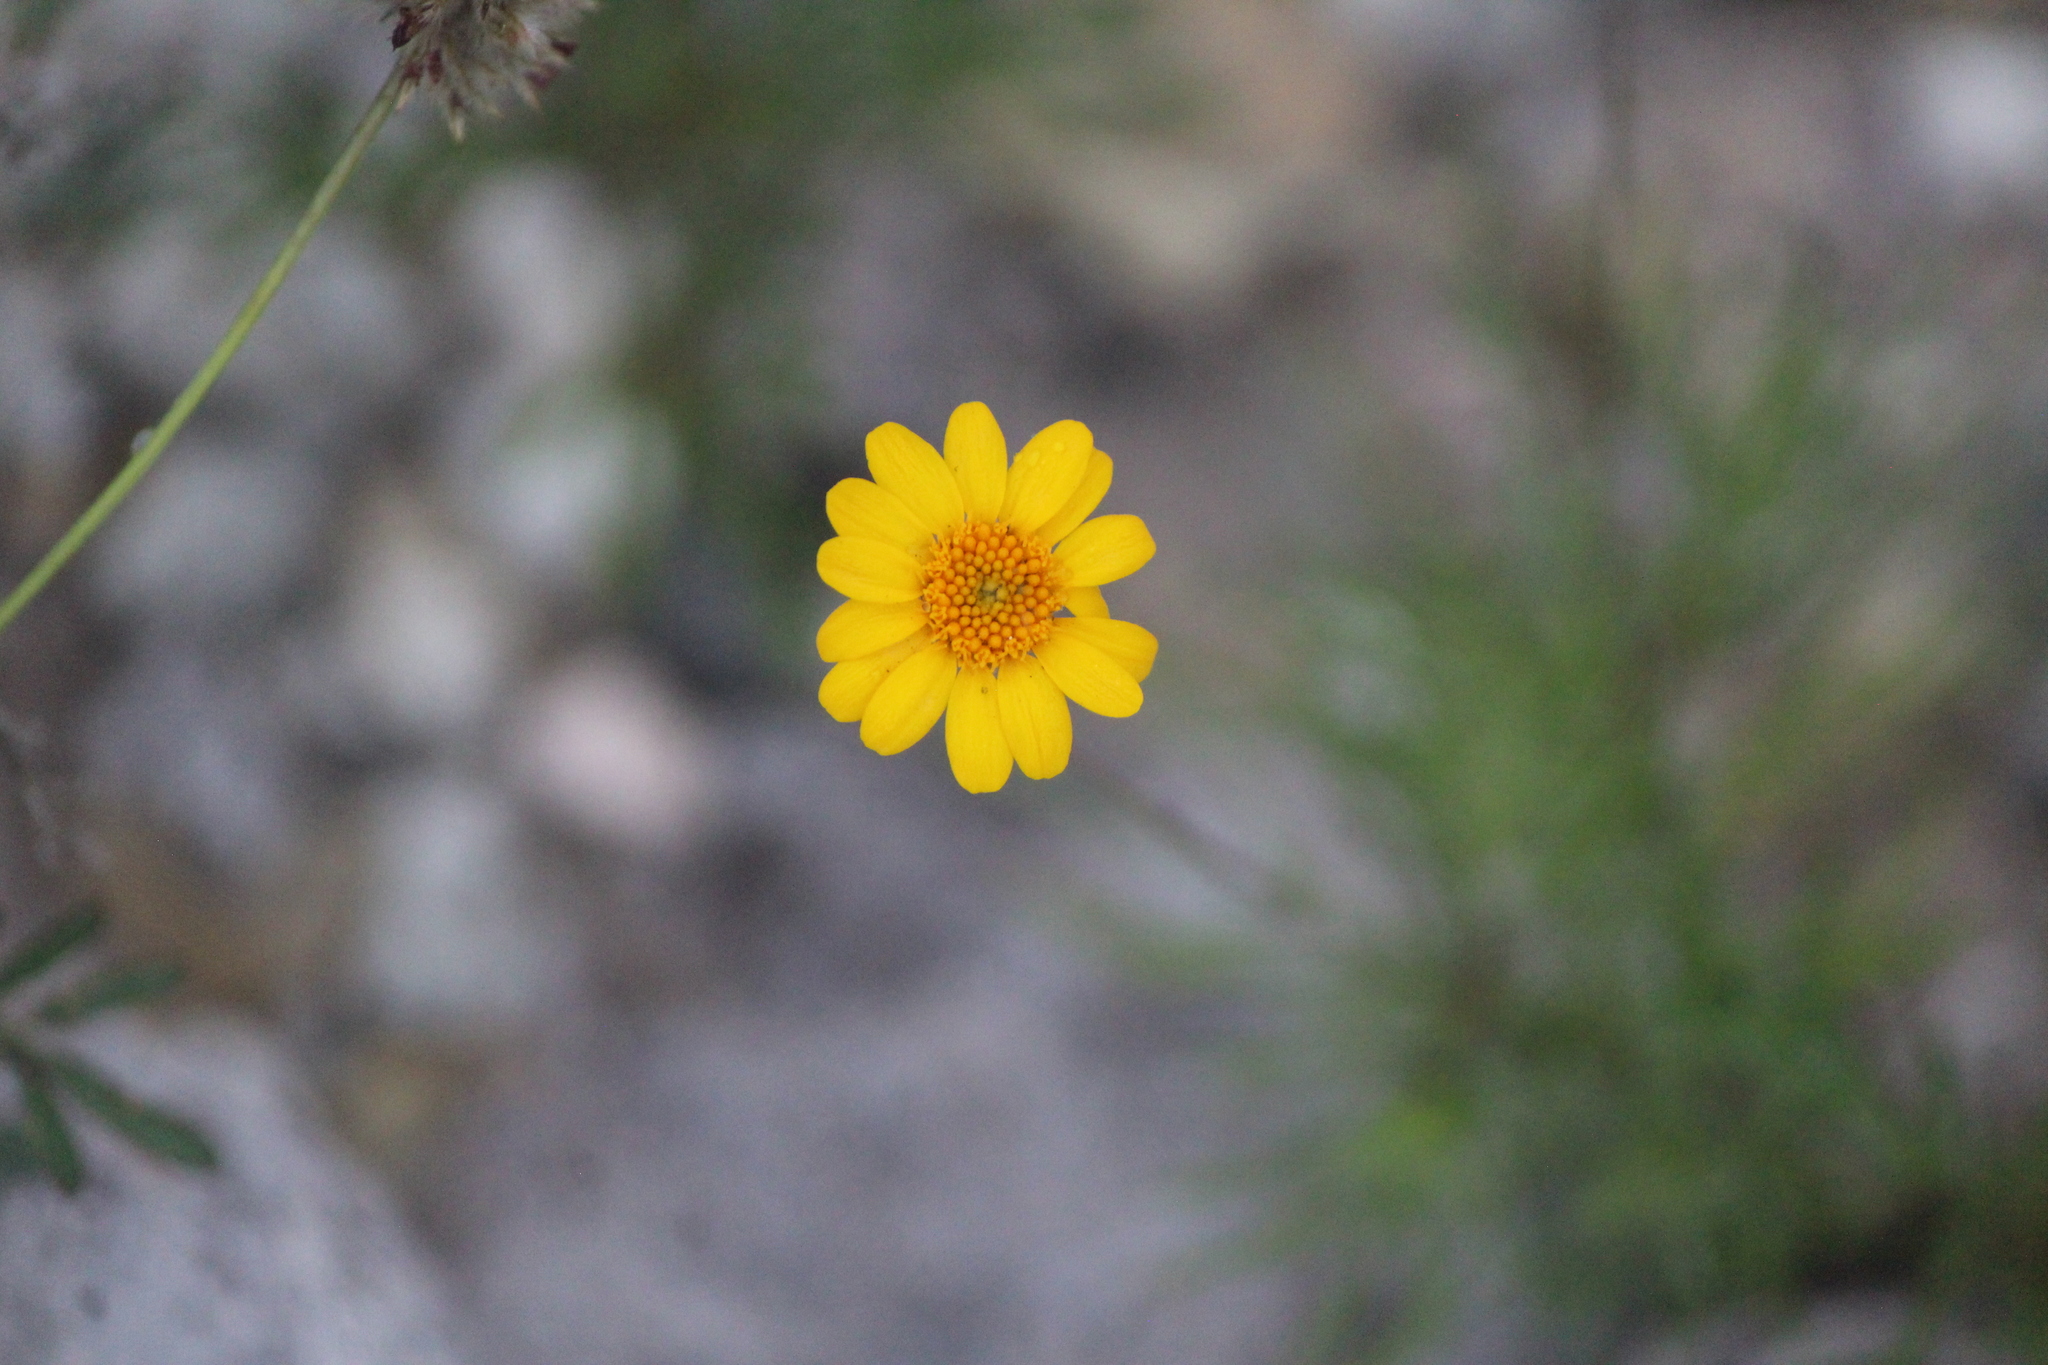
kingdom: Plantae
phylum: Tracheophyta
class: Magnoliopsida
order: Asterales
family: Asteraceae
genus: Thymophylla
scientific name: Thymophylla pentachaeta
